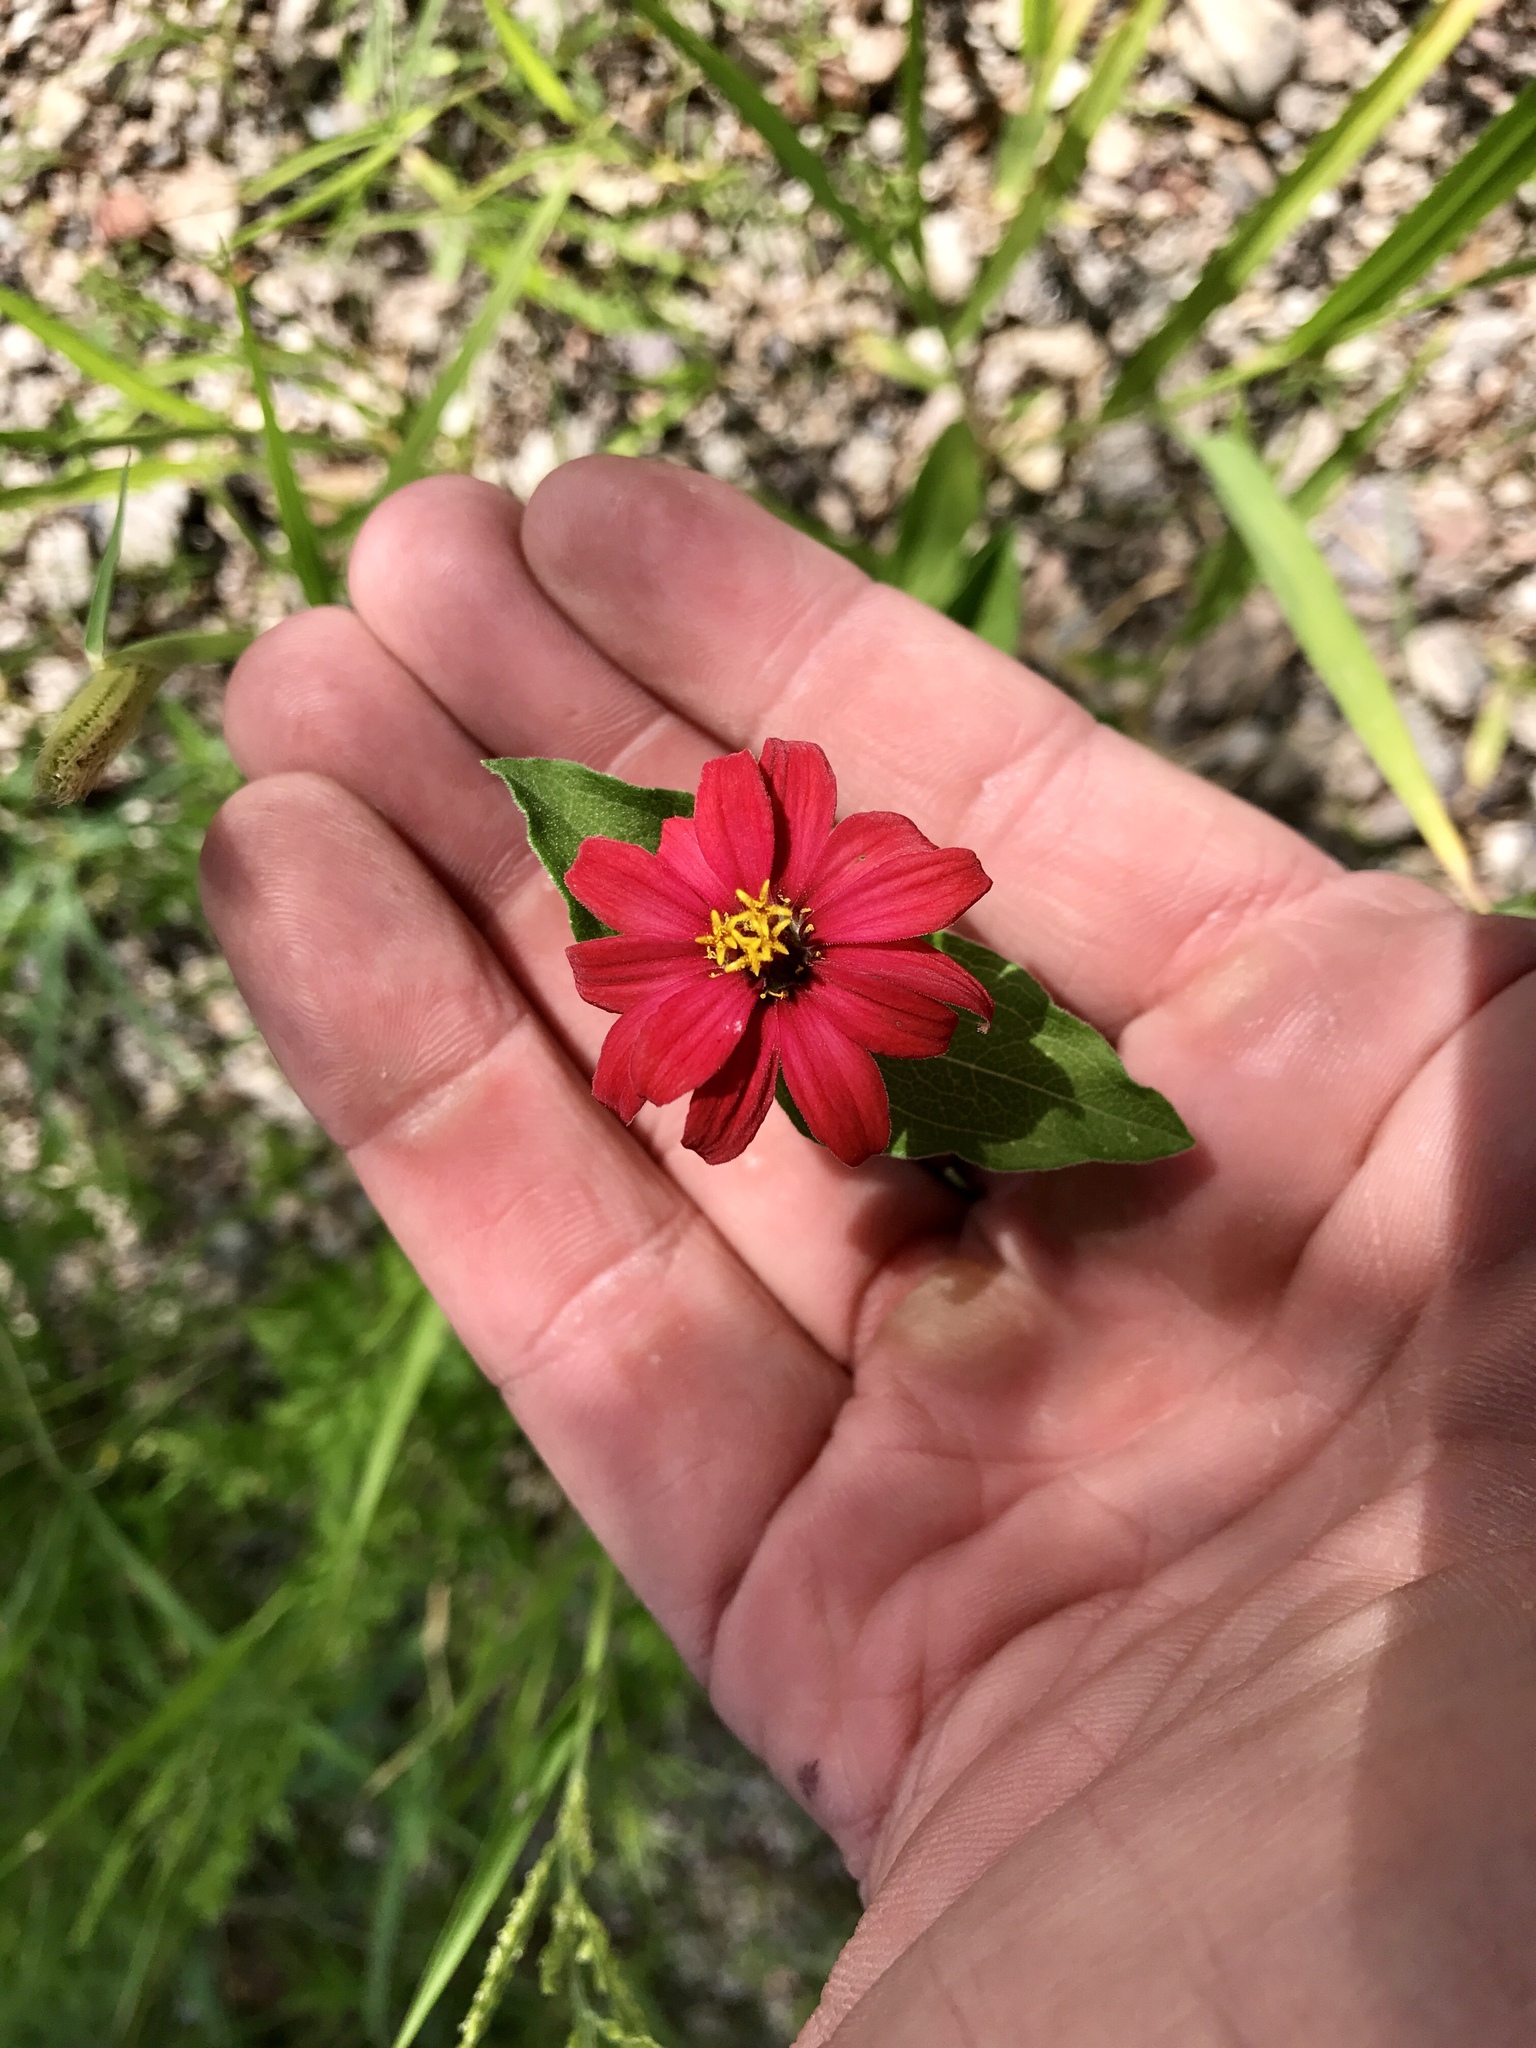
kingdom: Plantae
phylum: Tracheophyta
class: Magnoliopsida
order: Asterales
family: Asteraceae
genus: Zinnia
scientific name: Zinnia peruviana
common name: Peruvian zinnia
